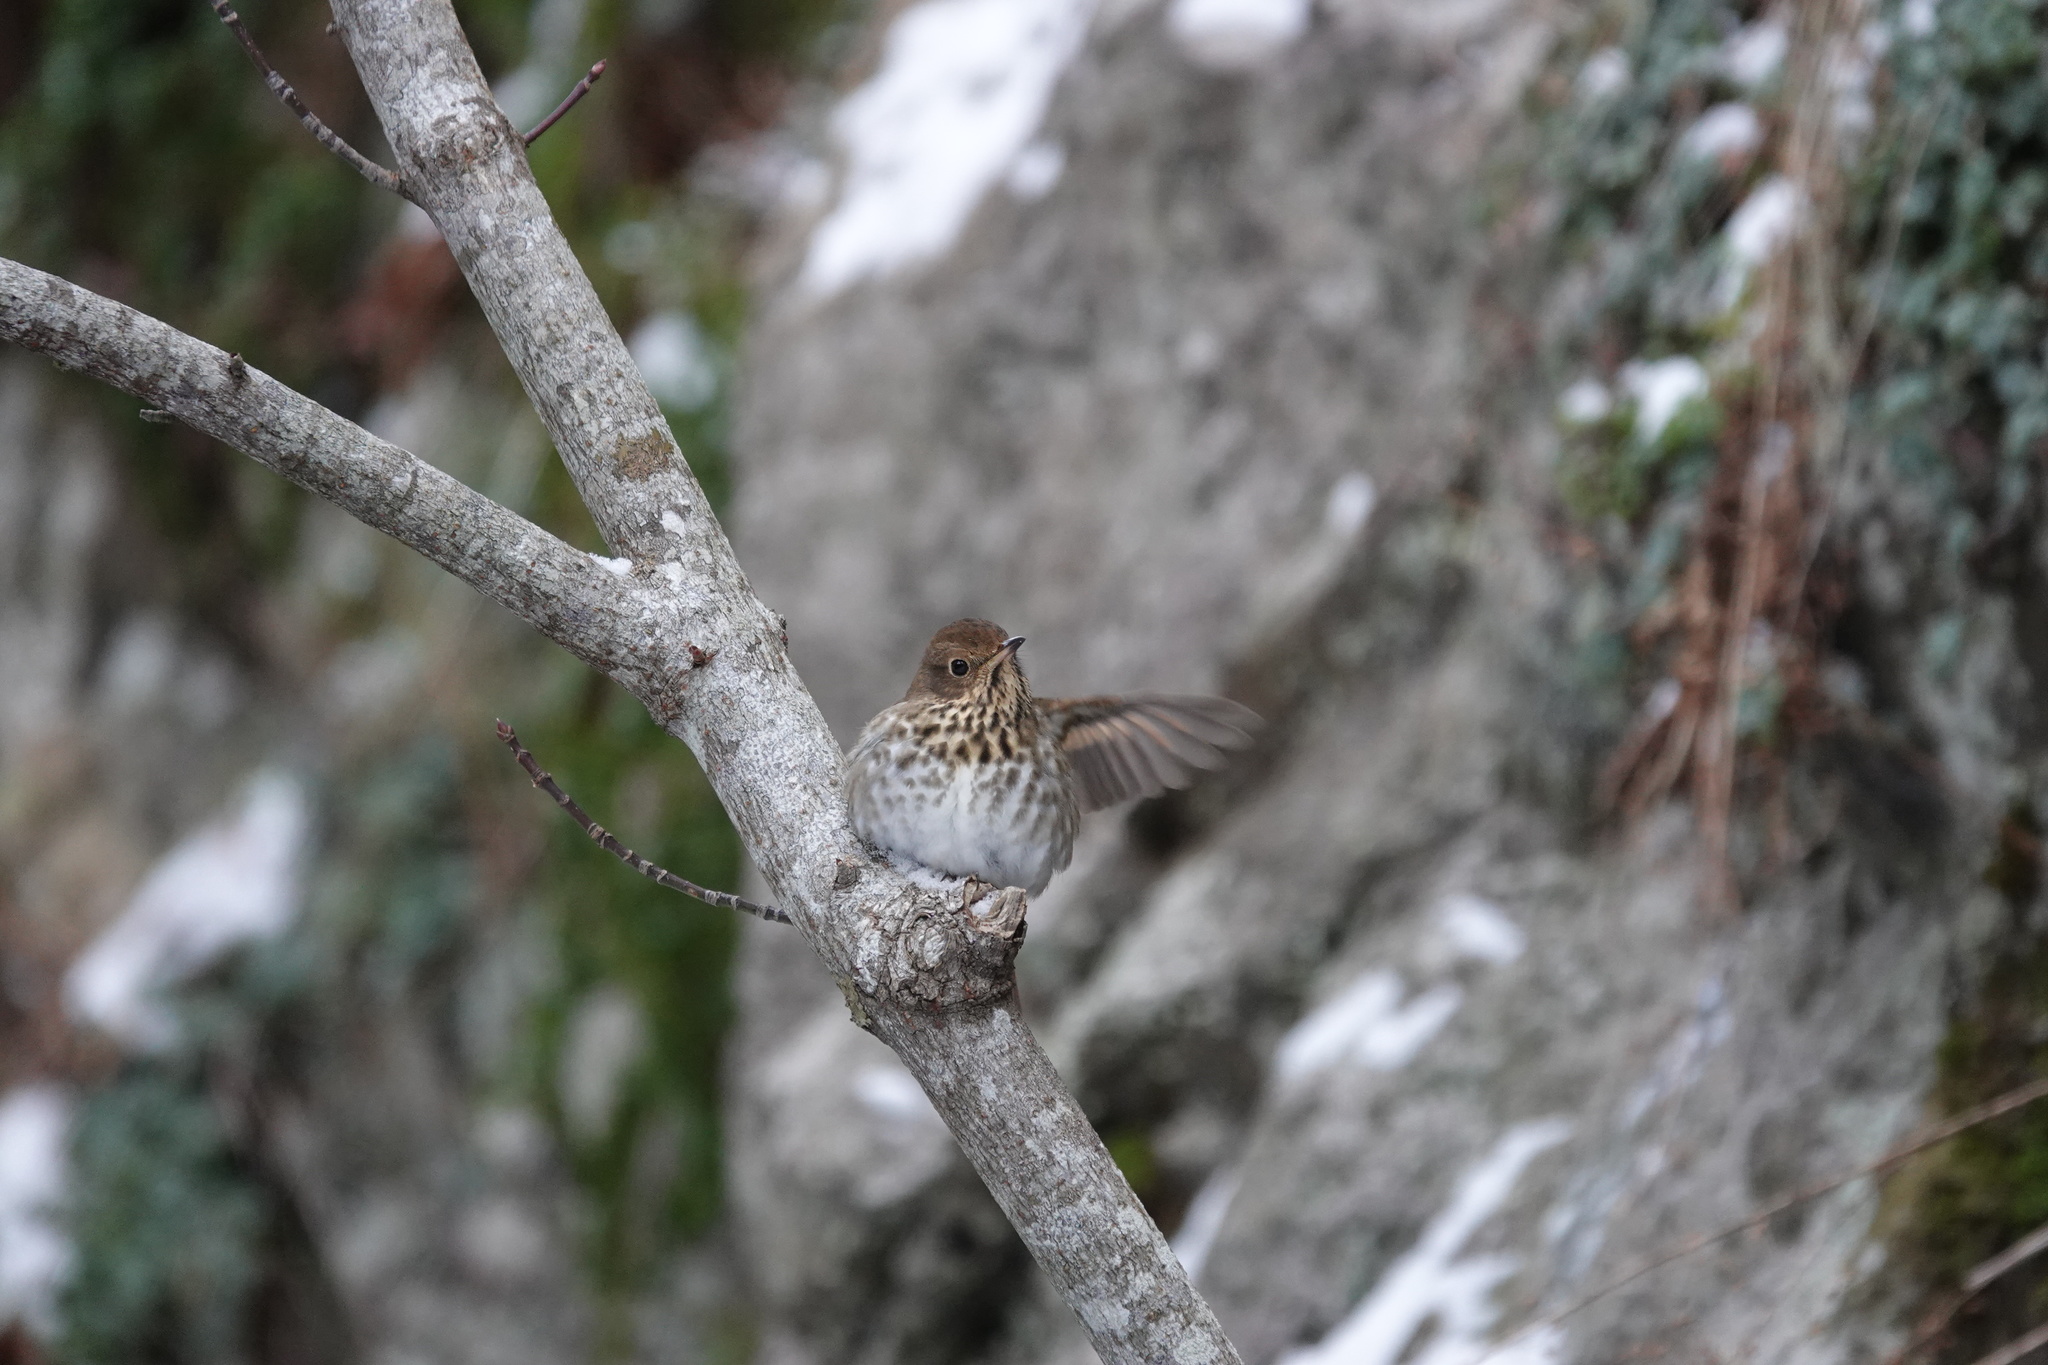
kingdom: Animalia
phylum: Chordata
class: Aves
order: Passeriformes
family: Turdidae
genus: Catharus
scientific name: Catharus guttatus
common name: Hermit thrush
